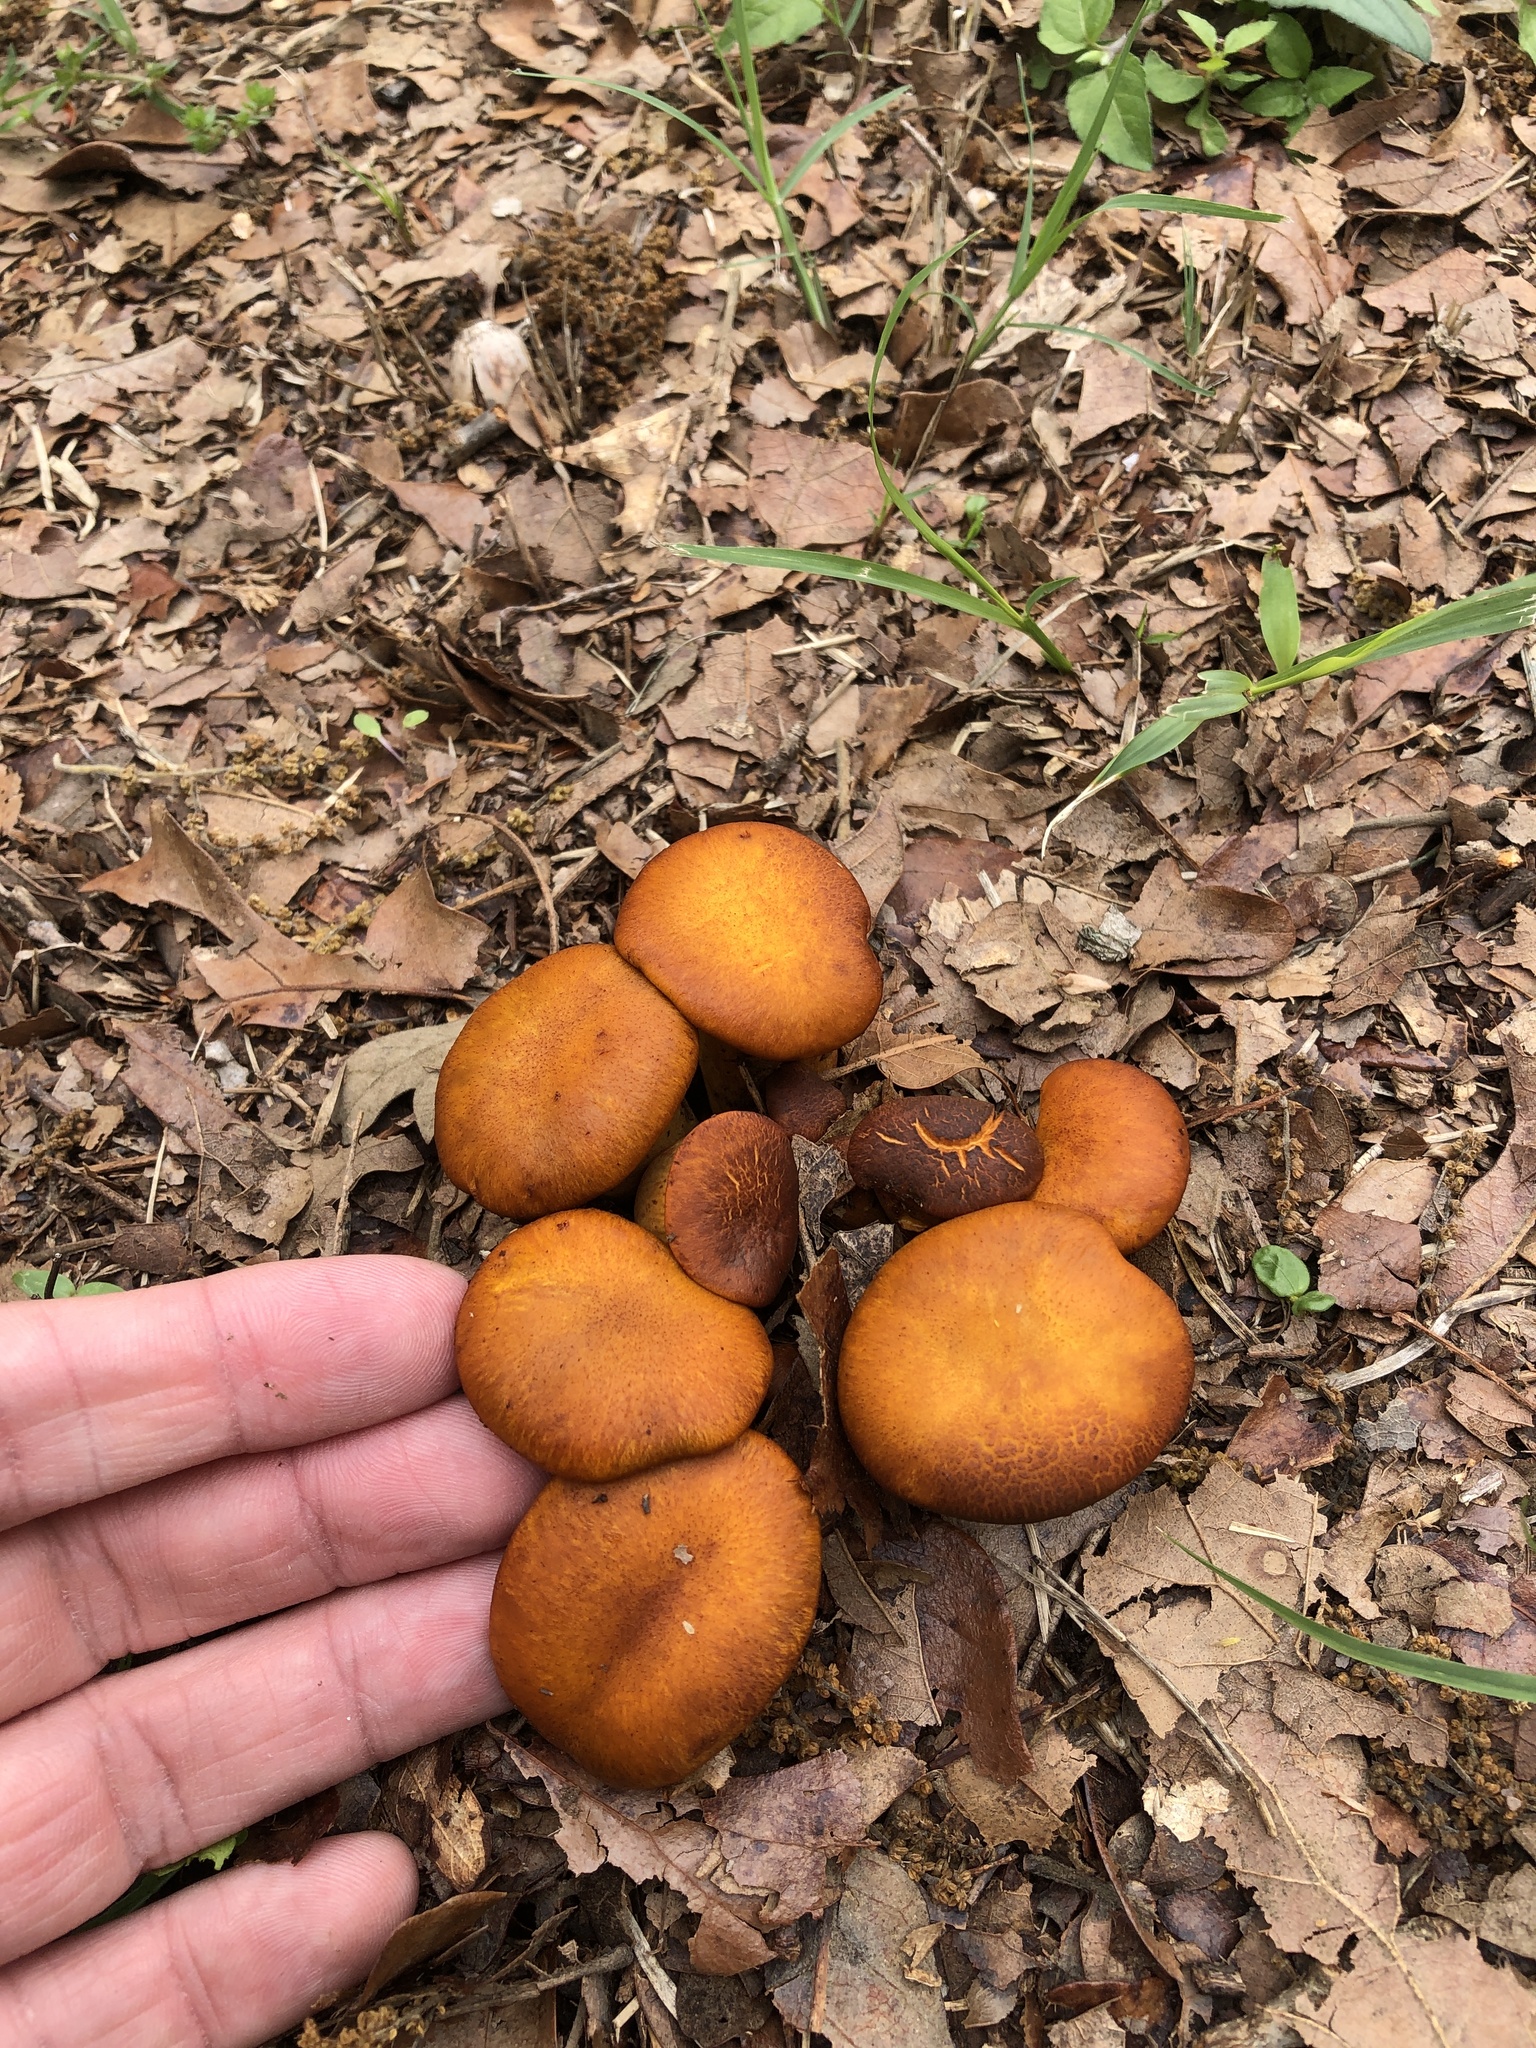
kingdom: Fungi
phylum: Basidiomycota
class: Agaricomycetes
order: Agaricales
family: Omphalotaceae
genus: Omphalotus
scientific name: Omphalotus subilludens
